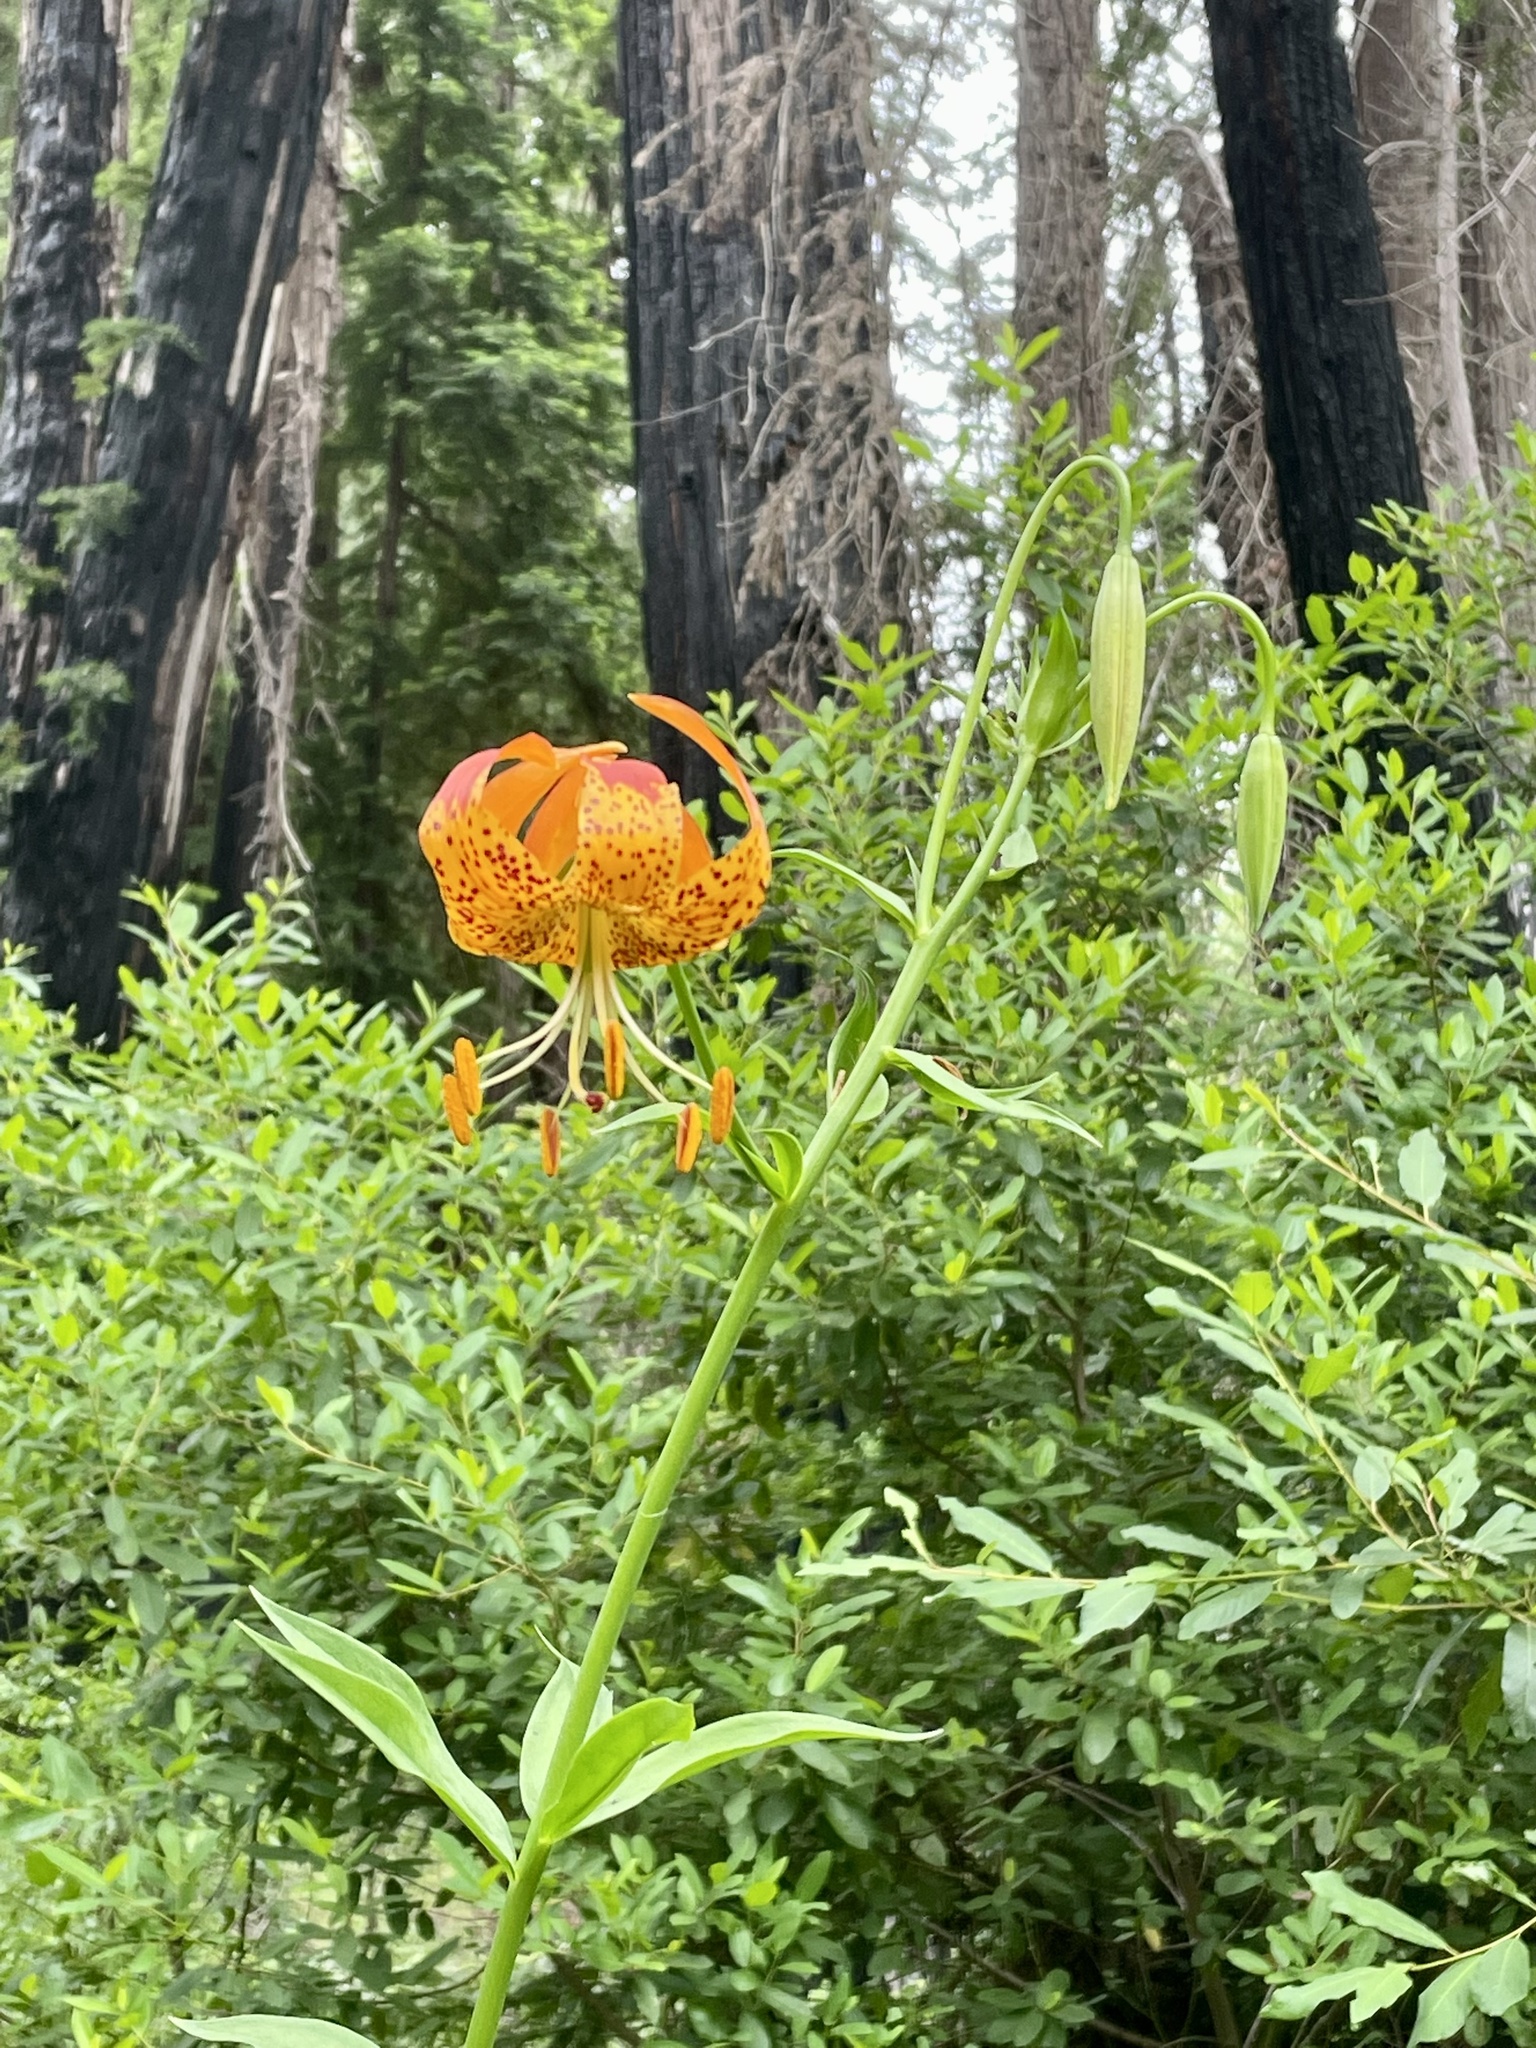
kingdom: Plantae
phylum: Tracheophyta
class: Liliopsida
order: Liliales
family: Liliaceae
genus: Lilium
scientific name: Lilium pardalinum
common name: Panther lily
